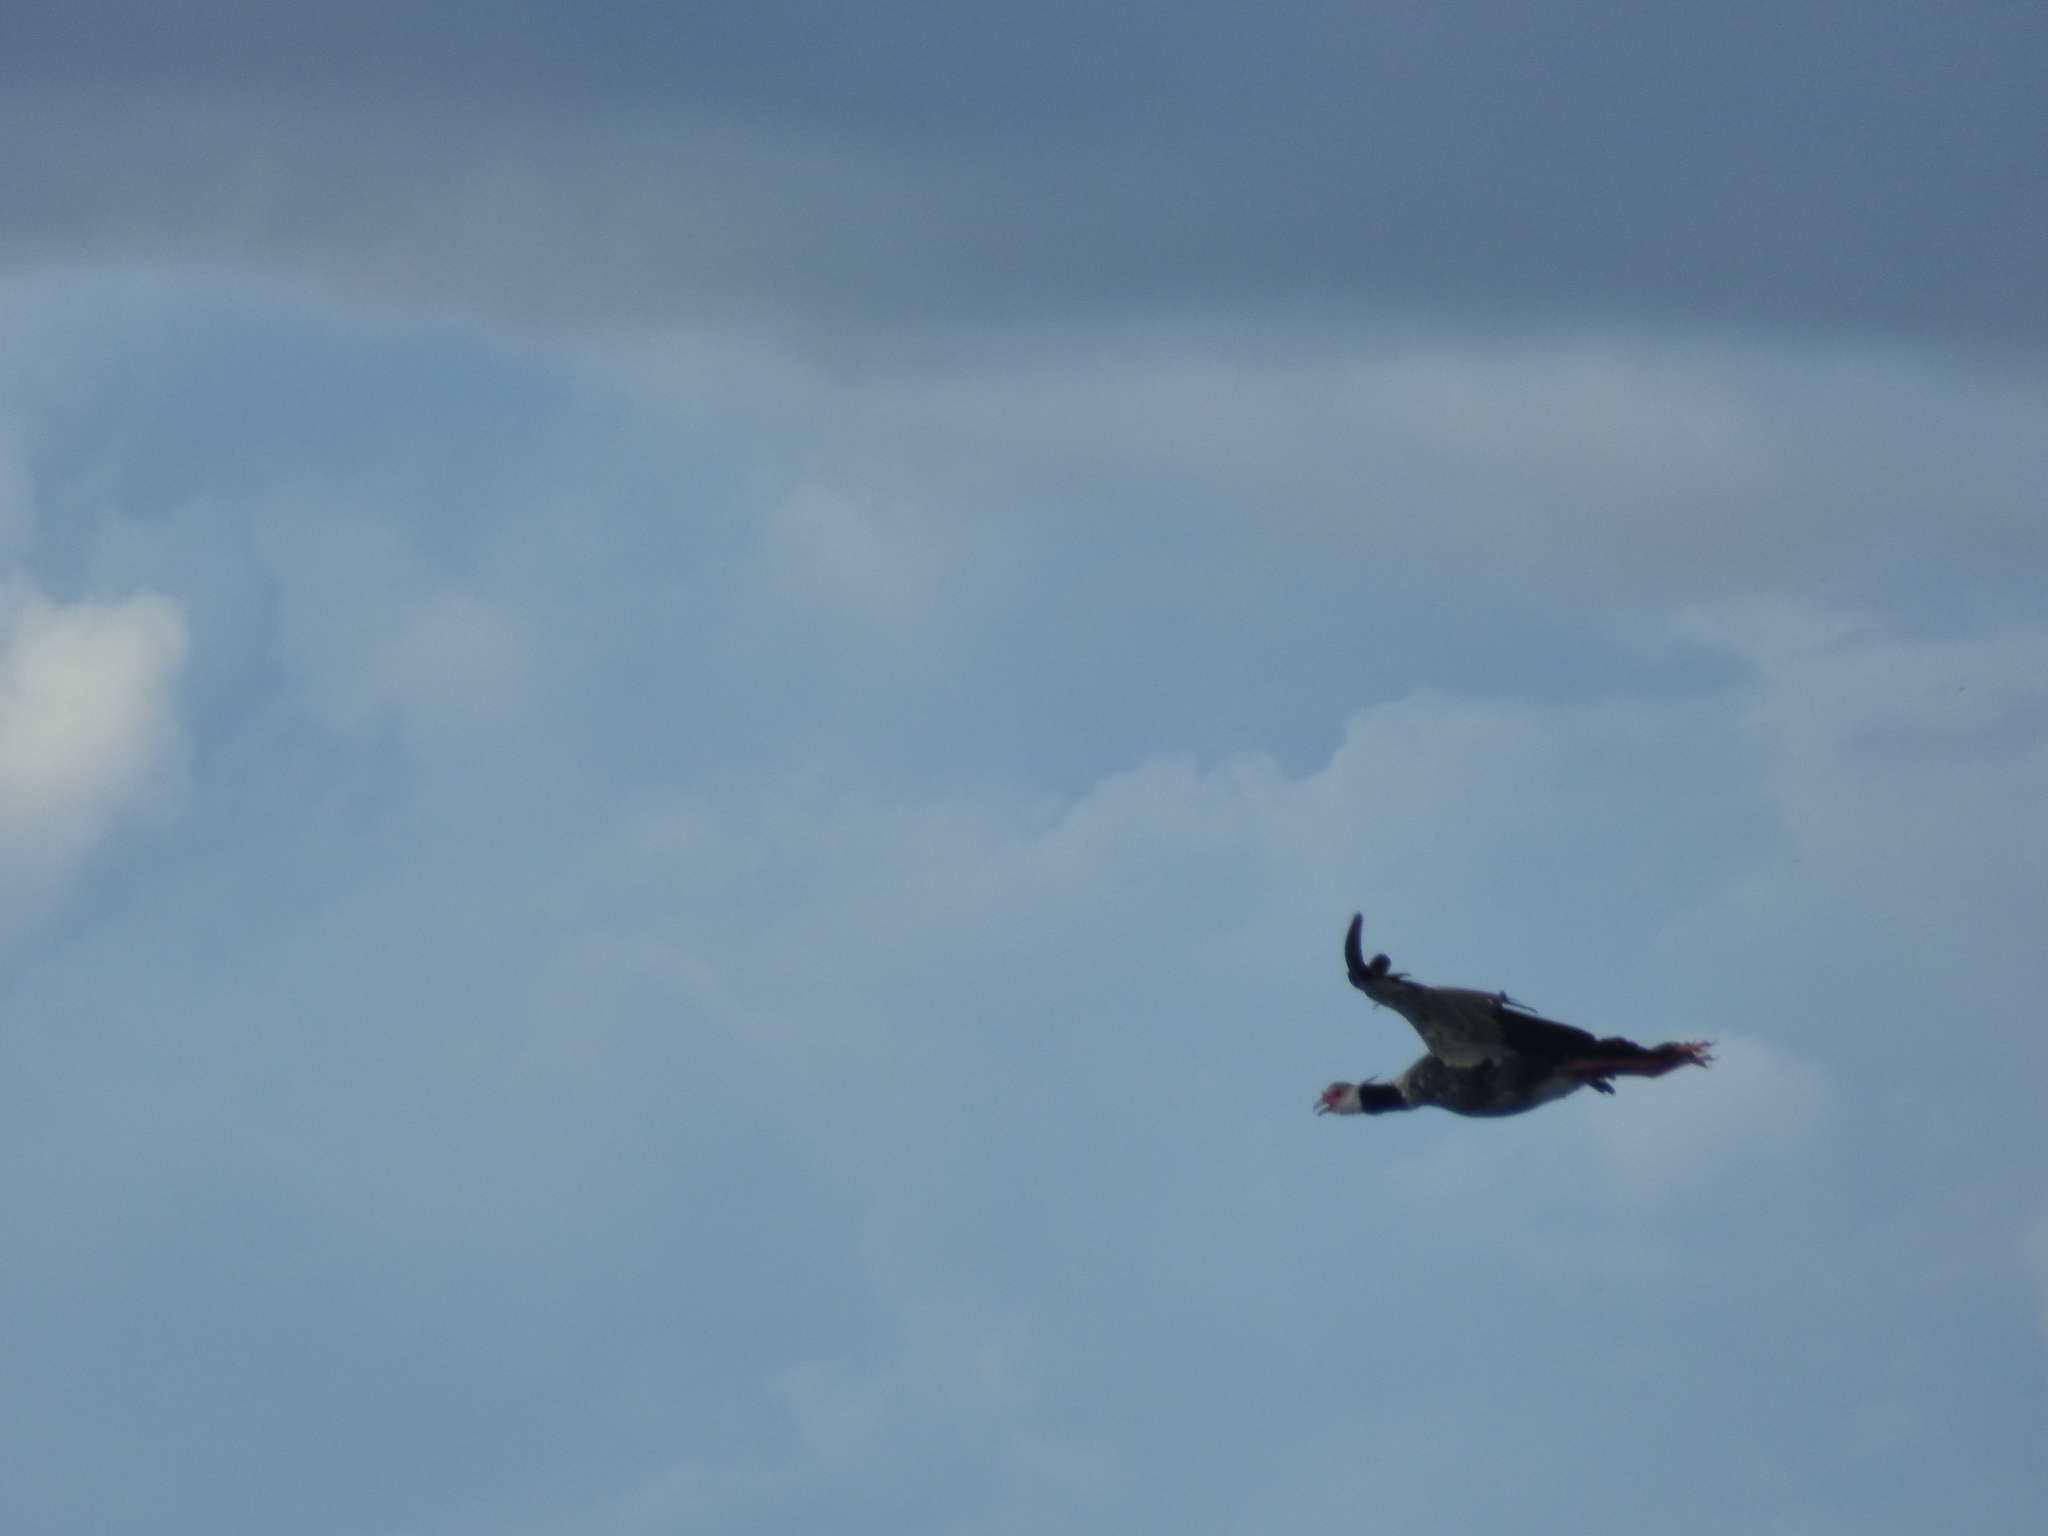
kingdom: Animalia
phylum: Chordata
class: Aves
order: Anseriformes
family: Anhimidae
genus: Chauna
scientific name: Chauna chavaria
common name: Northern screamer
